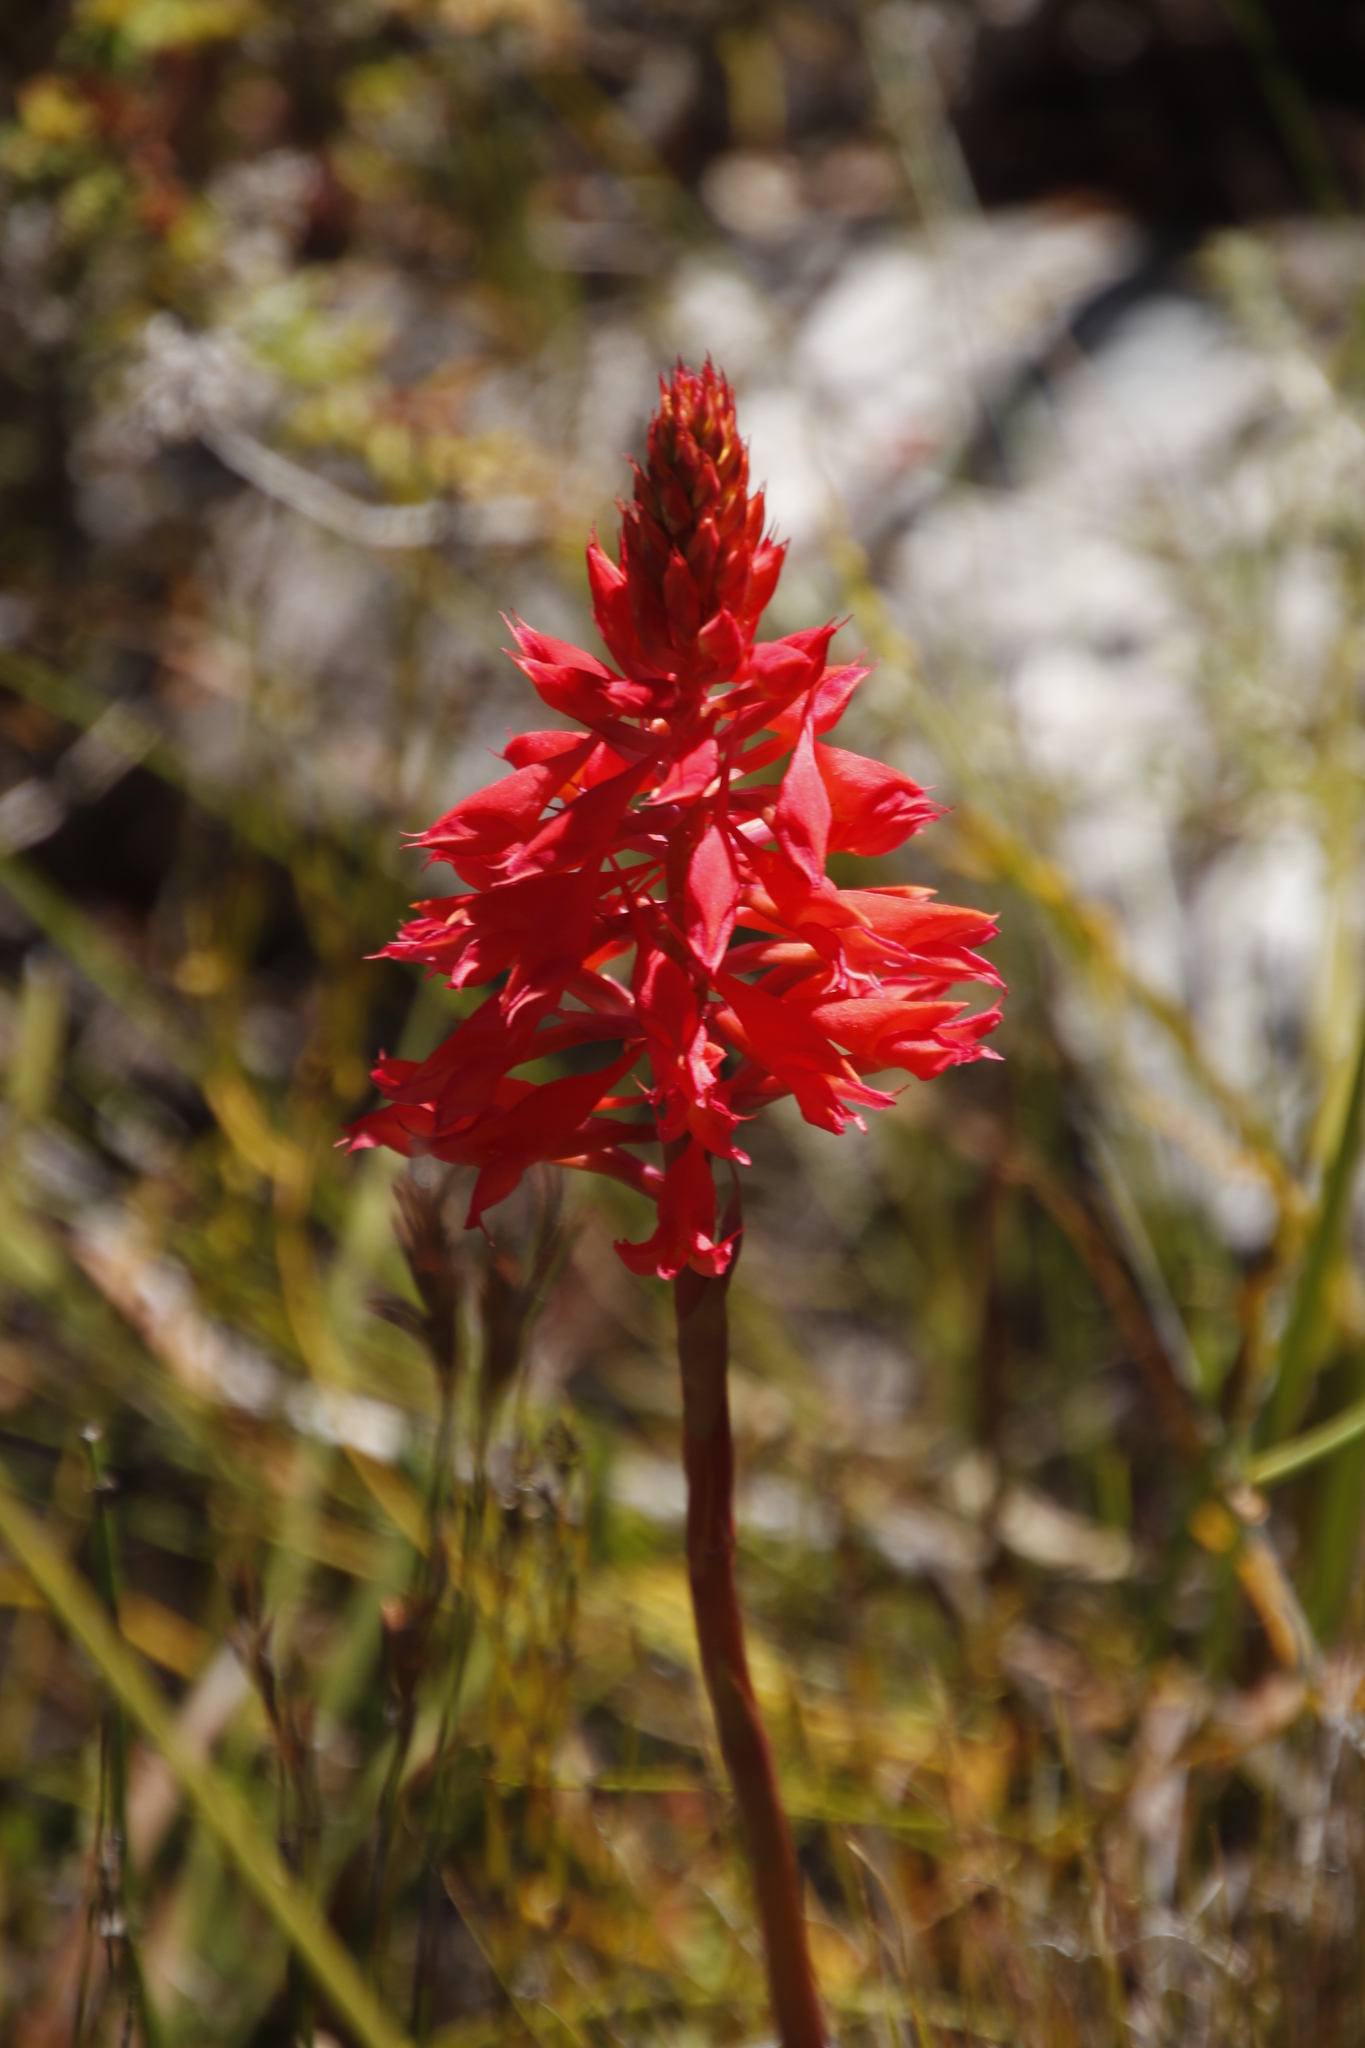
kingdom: Plantae
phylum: Tracheophyta
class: Liliopsida
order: Asparagales
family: Orchidaceae
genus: Disa
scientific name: Disa ferruginea
